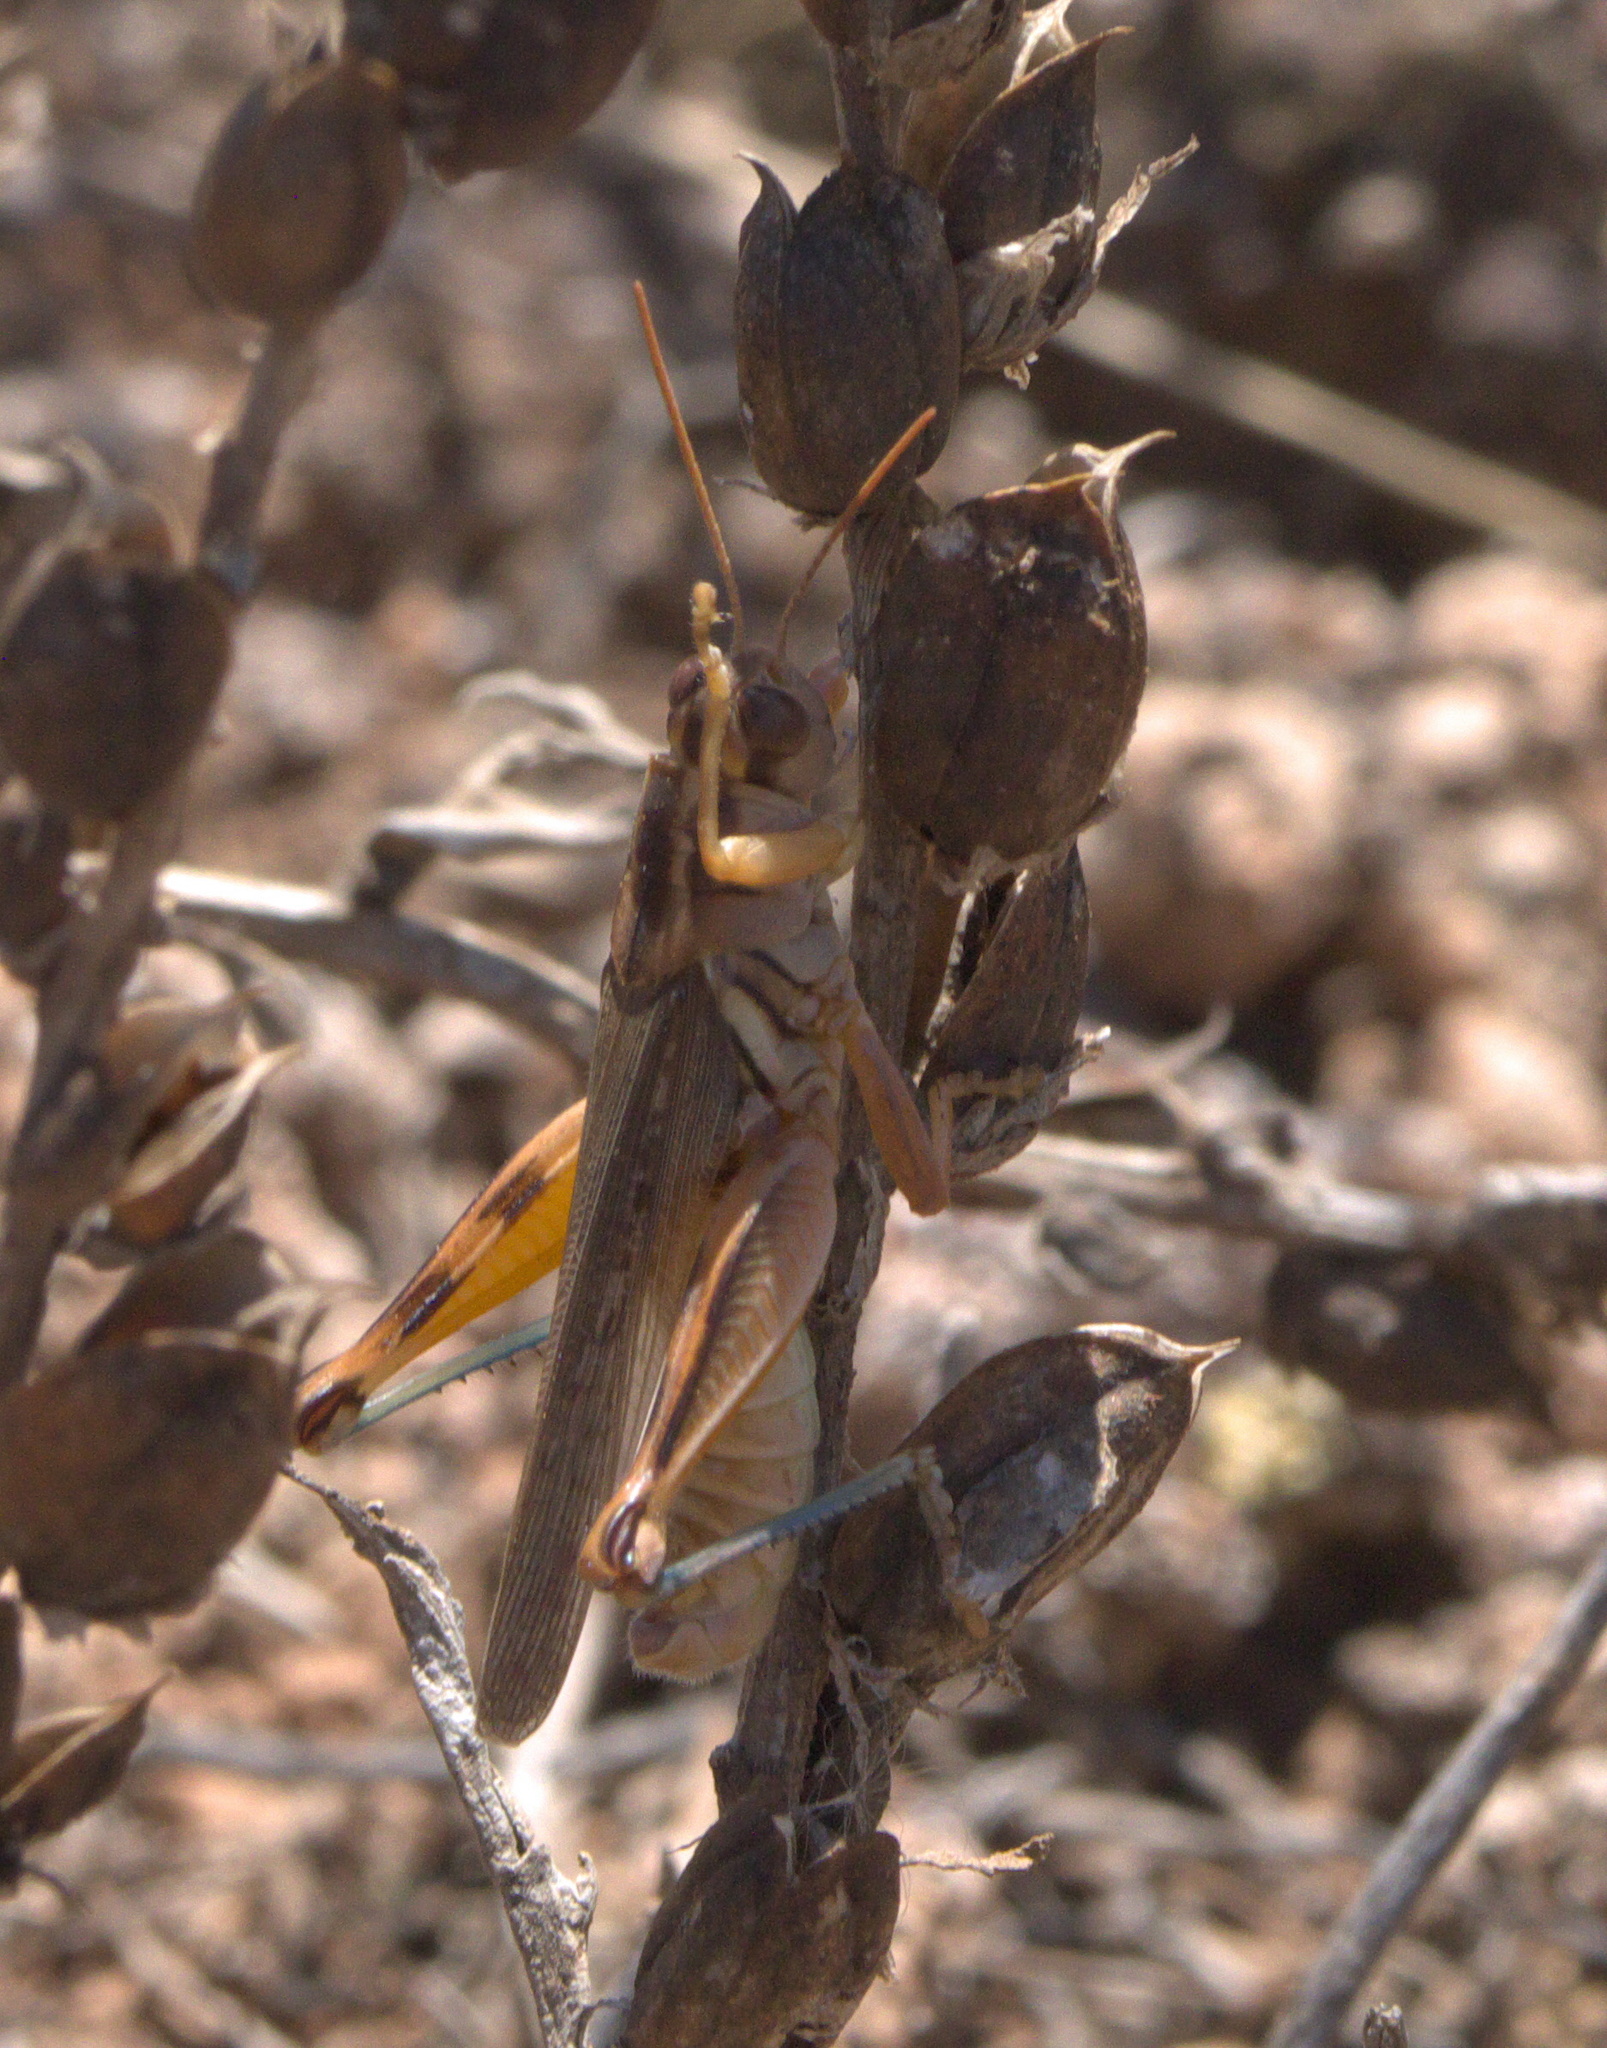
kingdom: Animalia
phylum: Arthropoda
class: Insecta
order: Orthoptera
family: Acrididae
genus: Melanoplus
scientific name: Melanoplus packardii
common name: Packard's grasshopper
